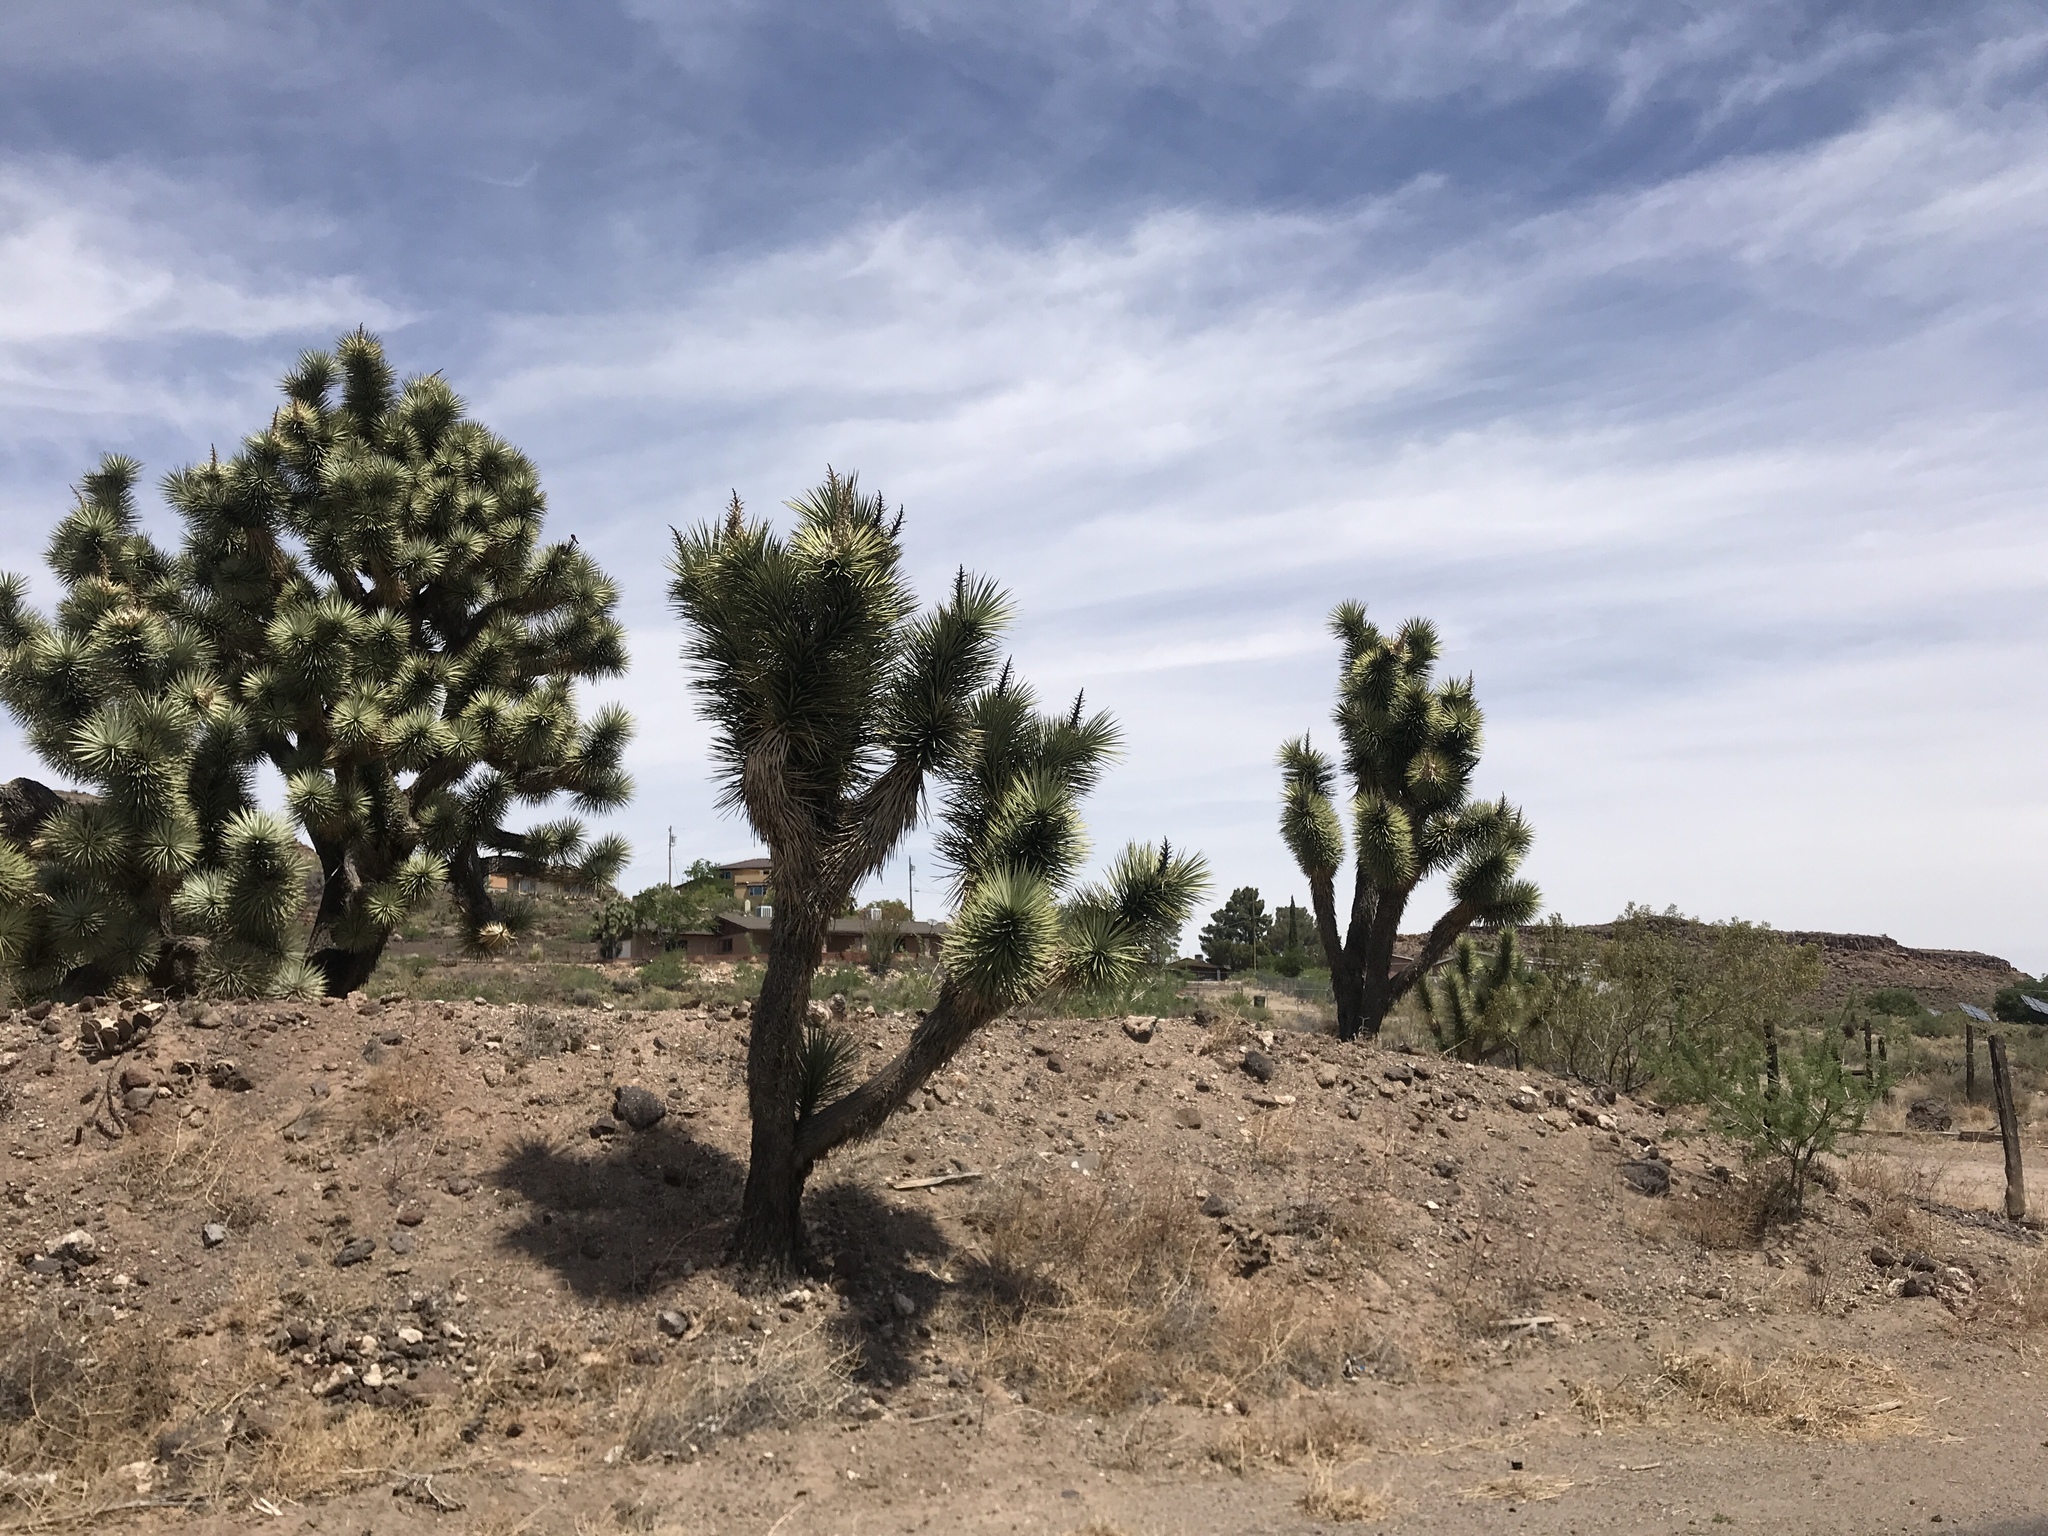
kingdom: Plantae
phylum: Tracheophyta
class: Liliopsida
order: Asparagales
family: Asparagaceae
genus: Yucca
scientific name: Yucca brevifolia
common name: Joshua tree
